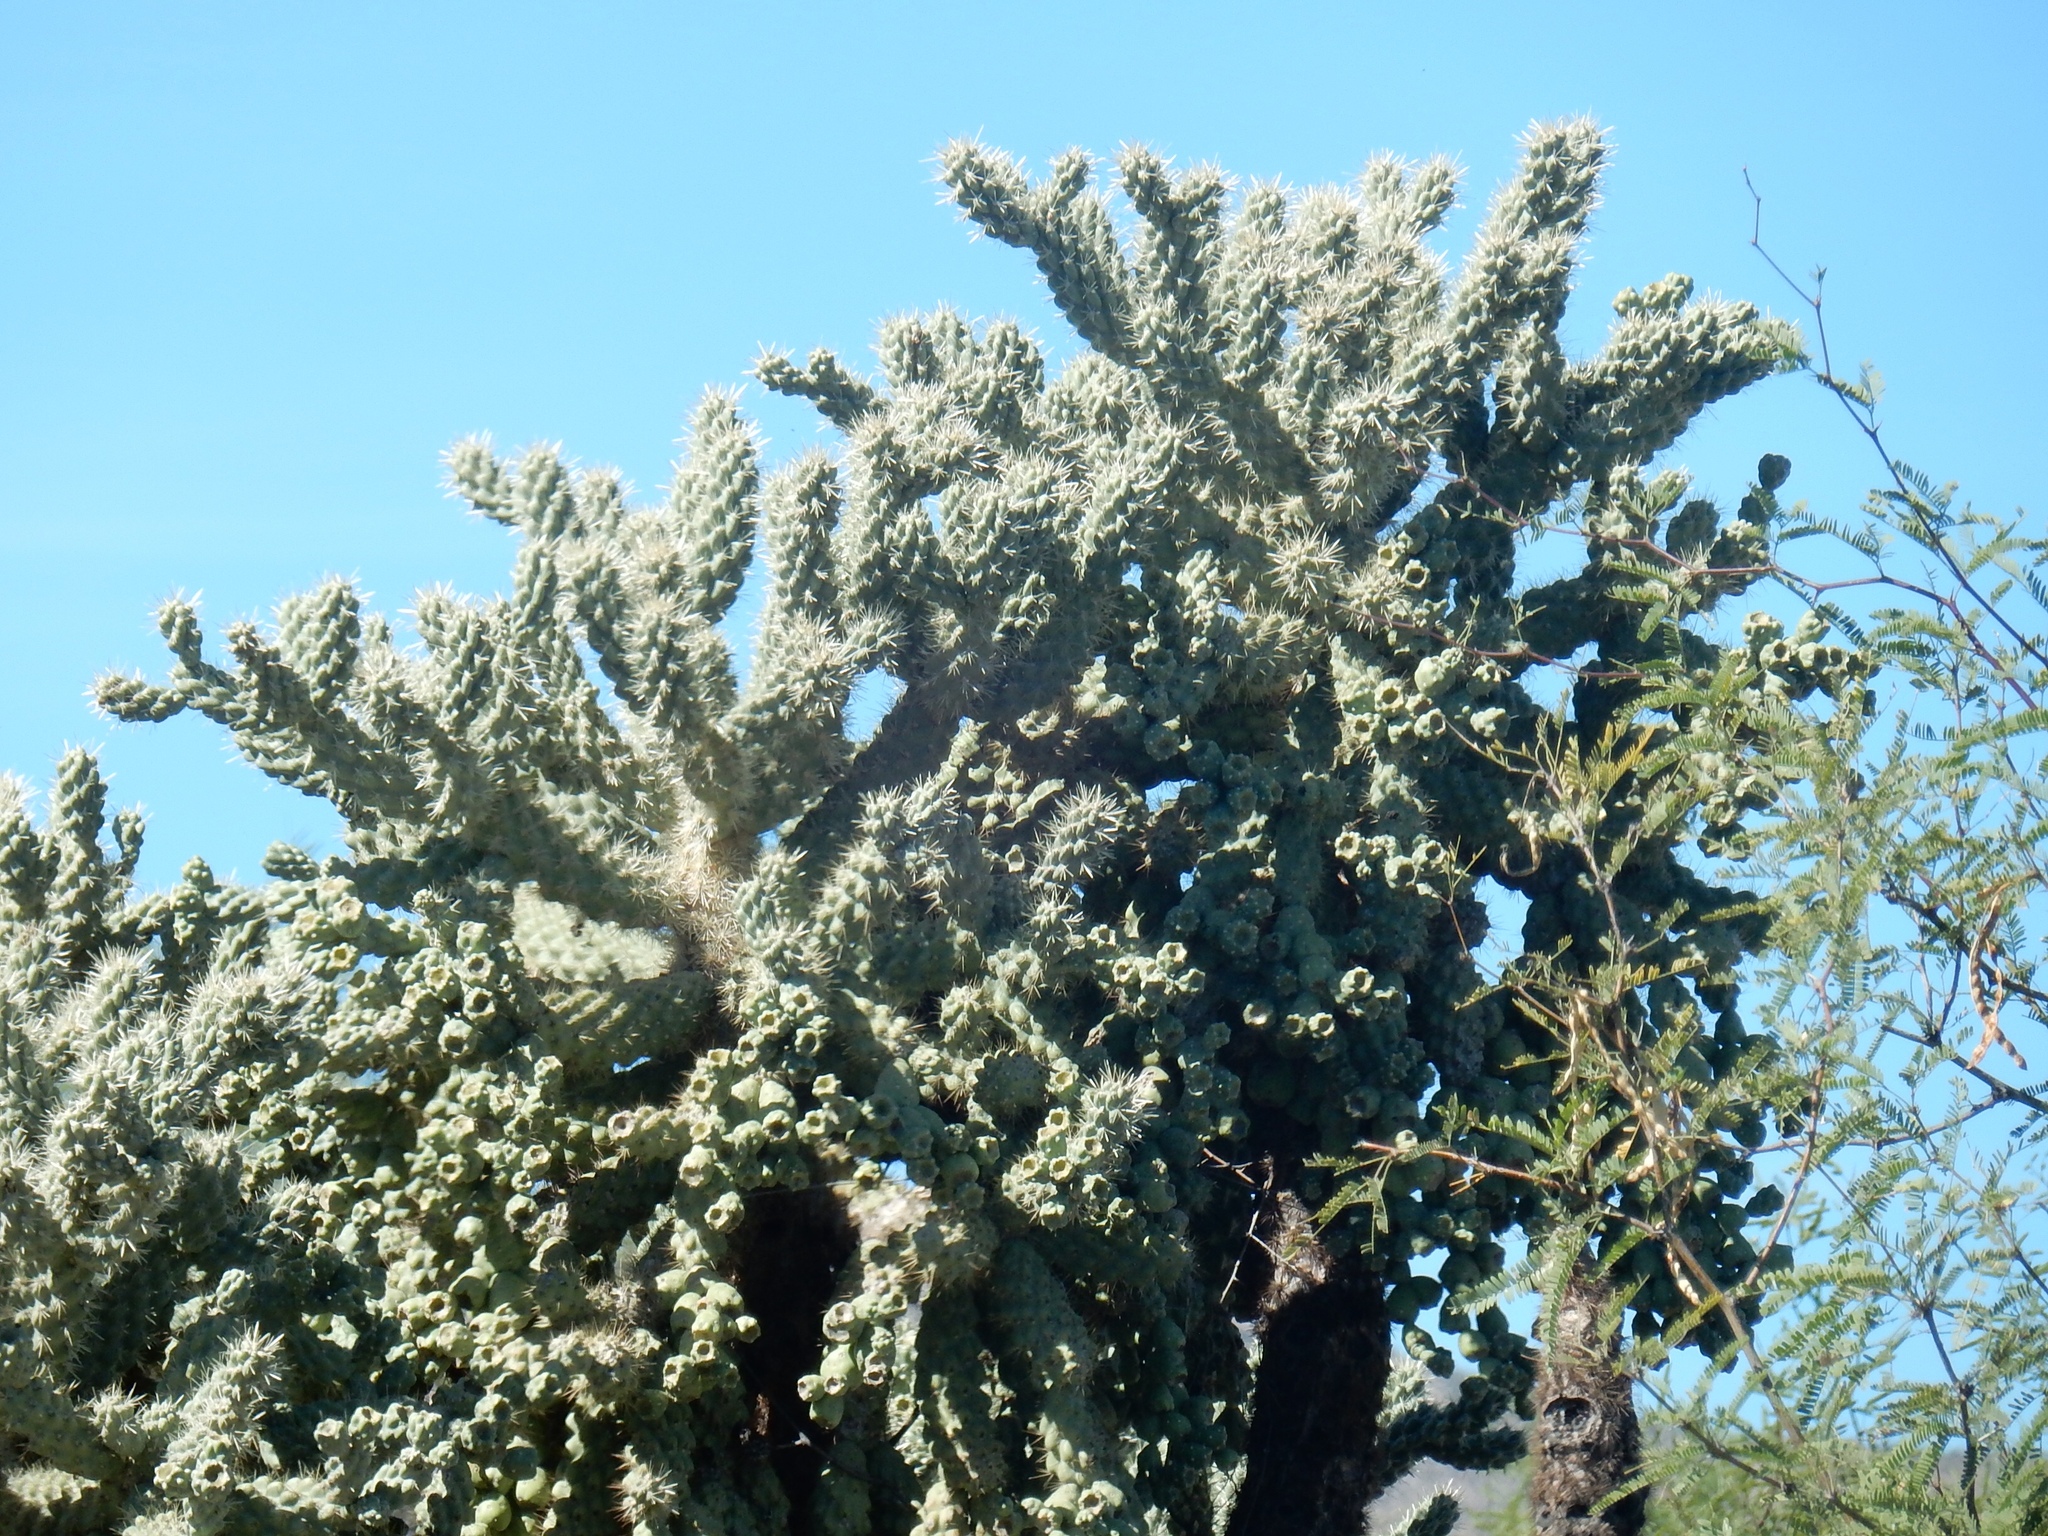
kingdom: Plantae
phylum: Tracheophyta
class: Magnoliopsida
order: Caryophyllales
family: Cactaceae
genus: Cylindropuntia
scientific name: Cylindropuntia fulgida
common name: Jumping cholla
